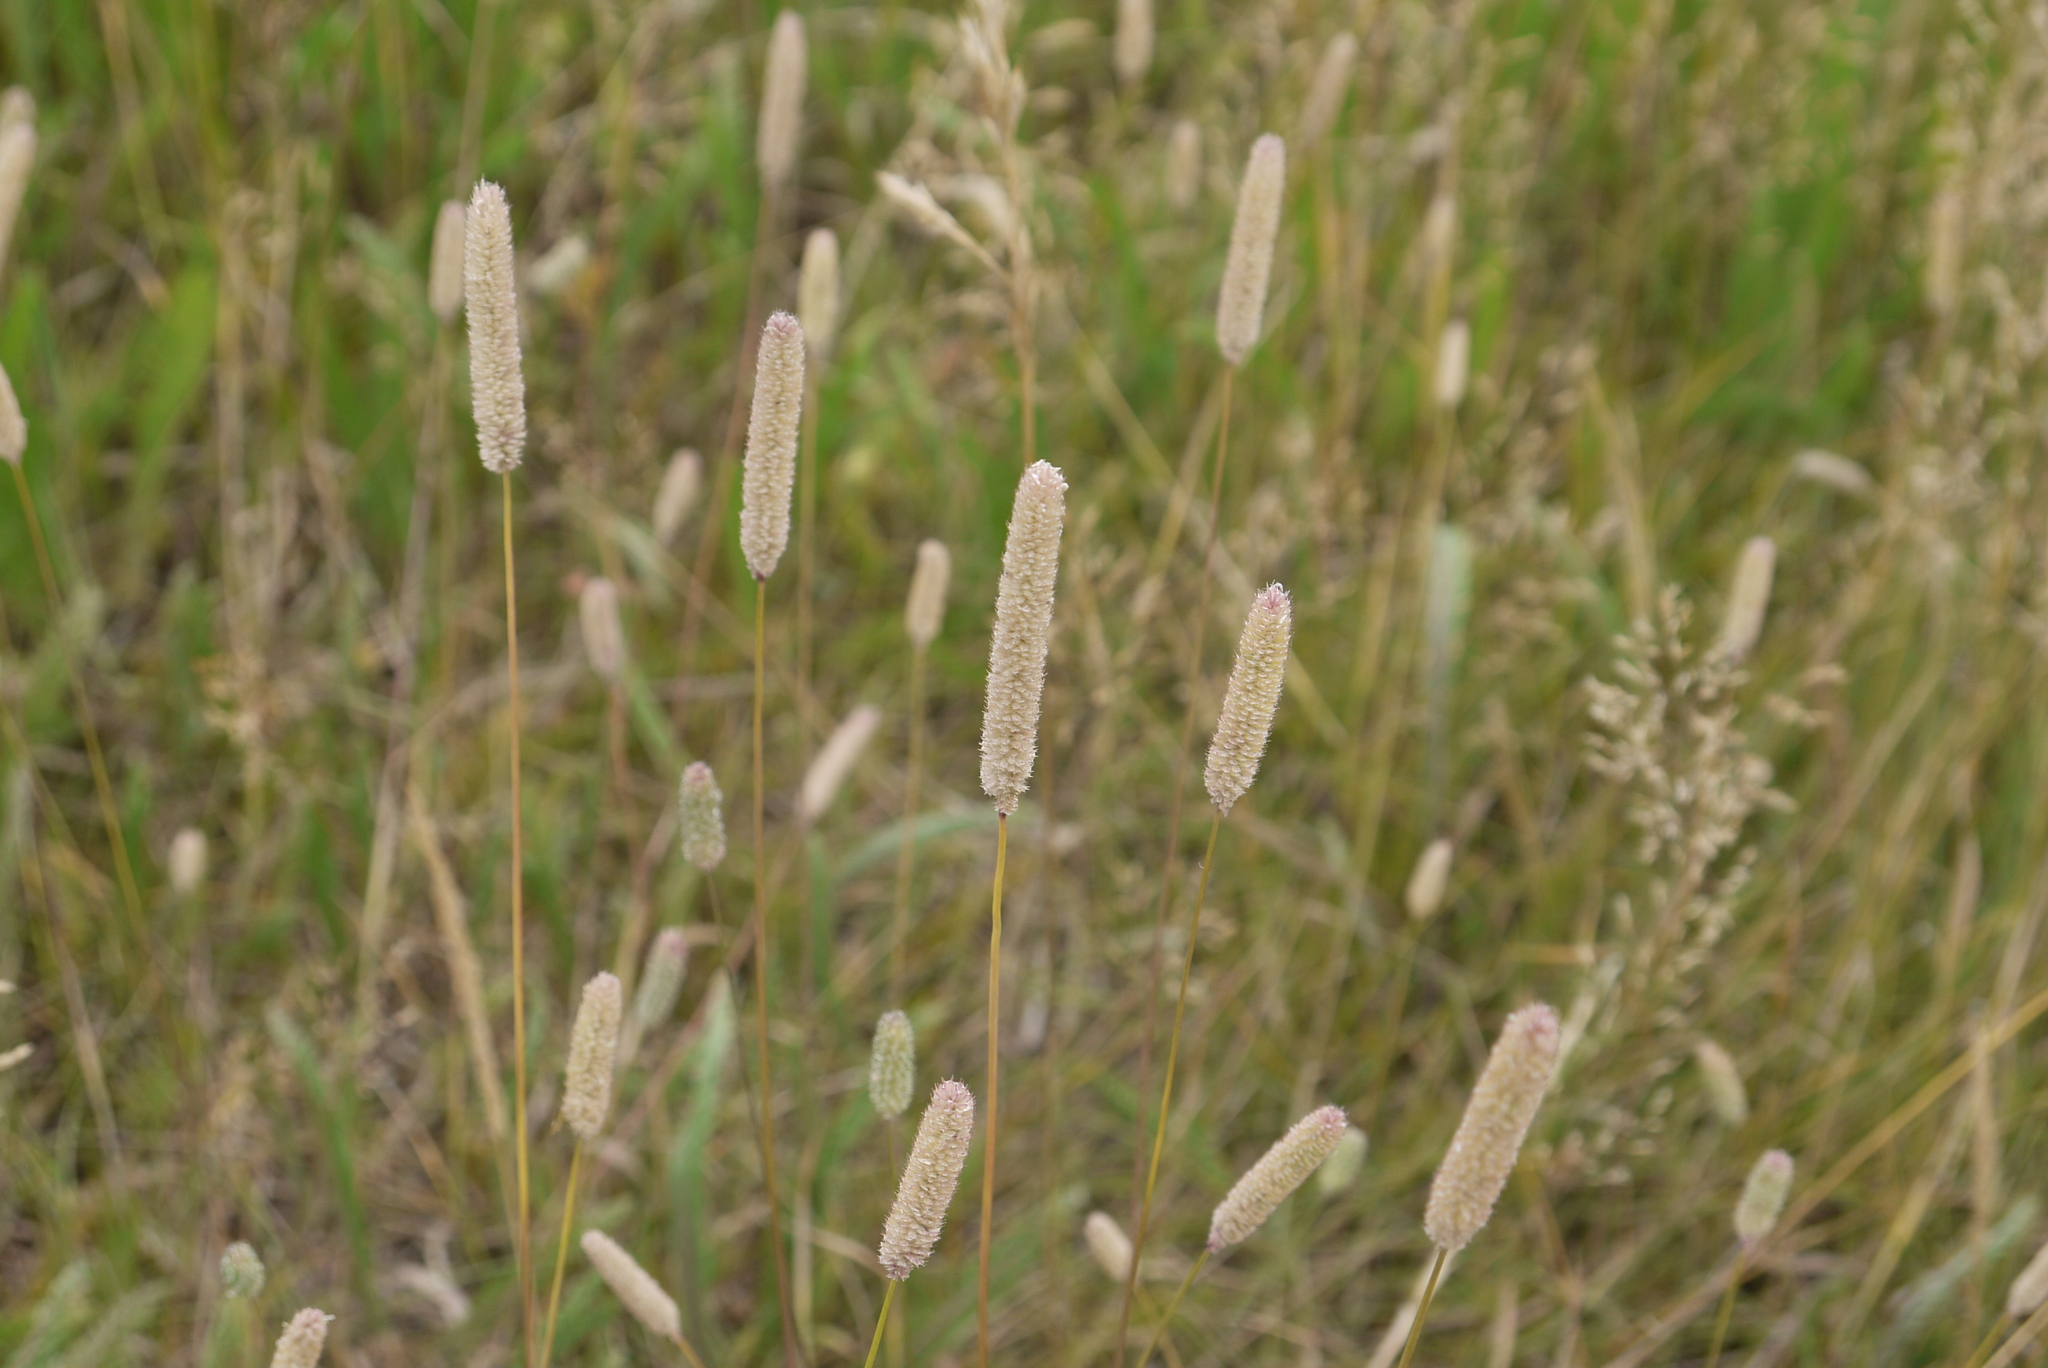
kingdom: Plantae
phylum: Tracheophyta
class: Liliopsida
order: Poales
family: Poaceae
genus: Phleum
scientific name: Phleum pratense
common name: Timothy grass
